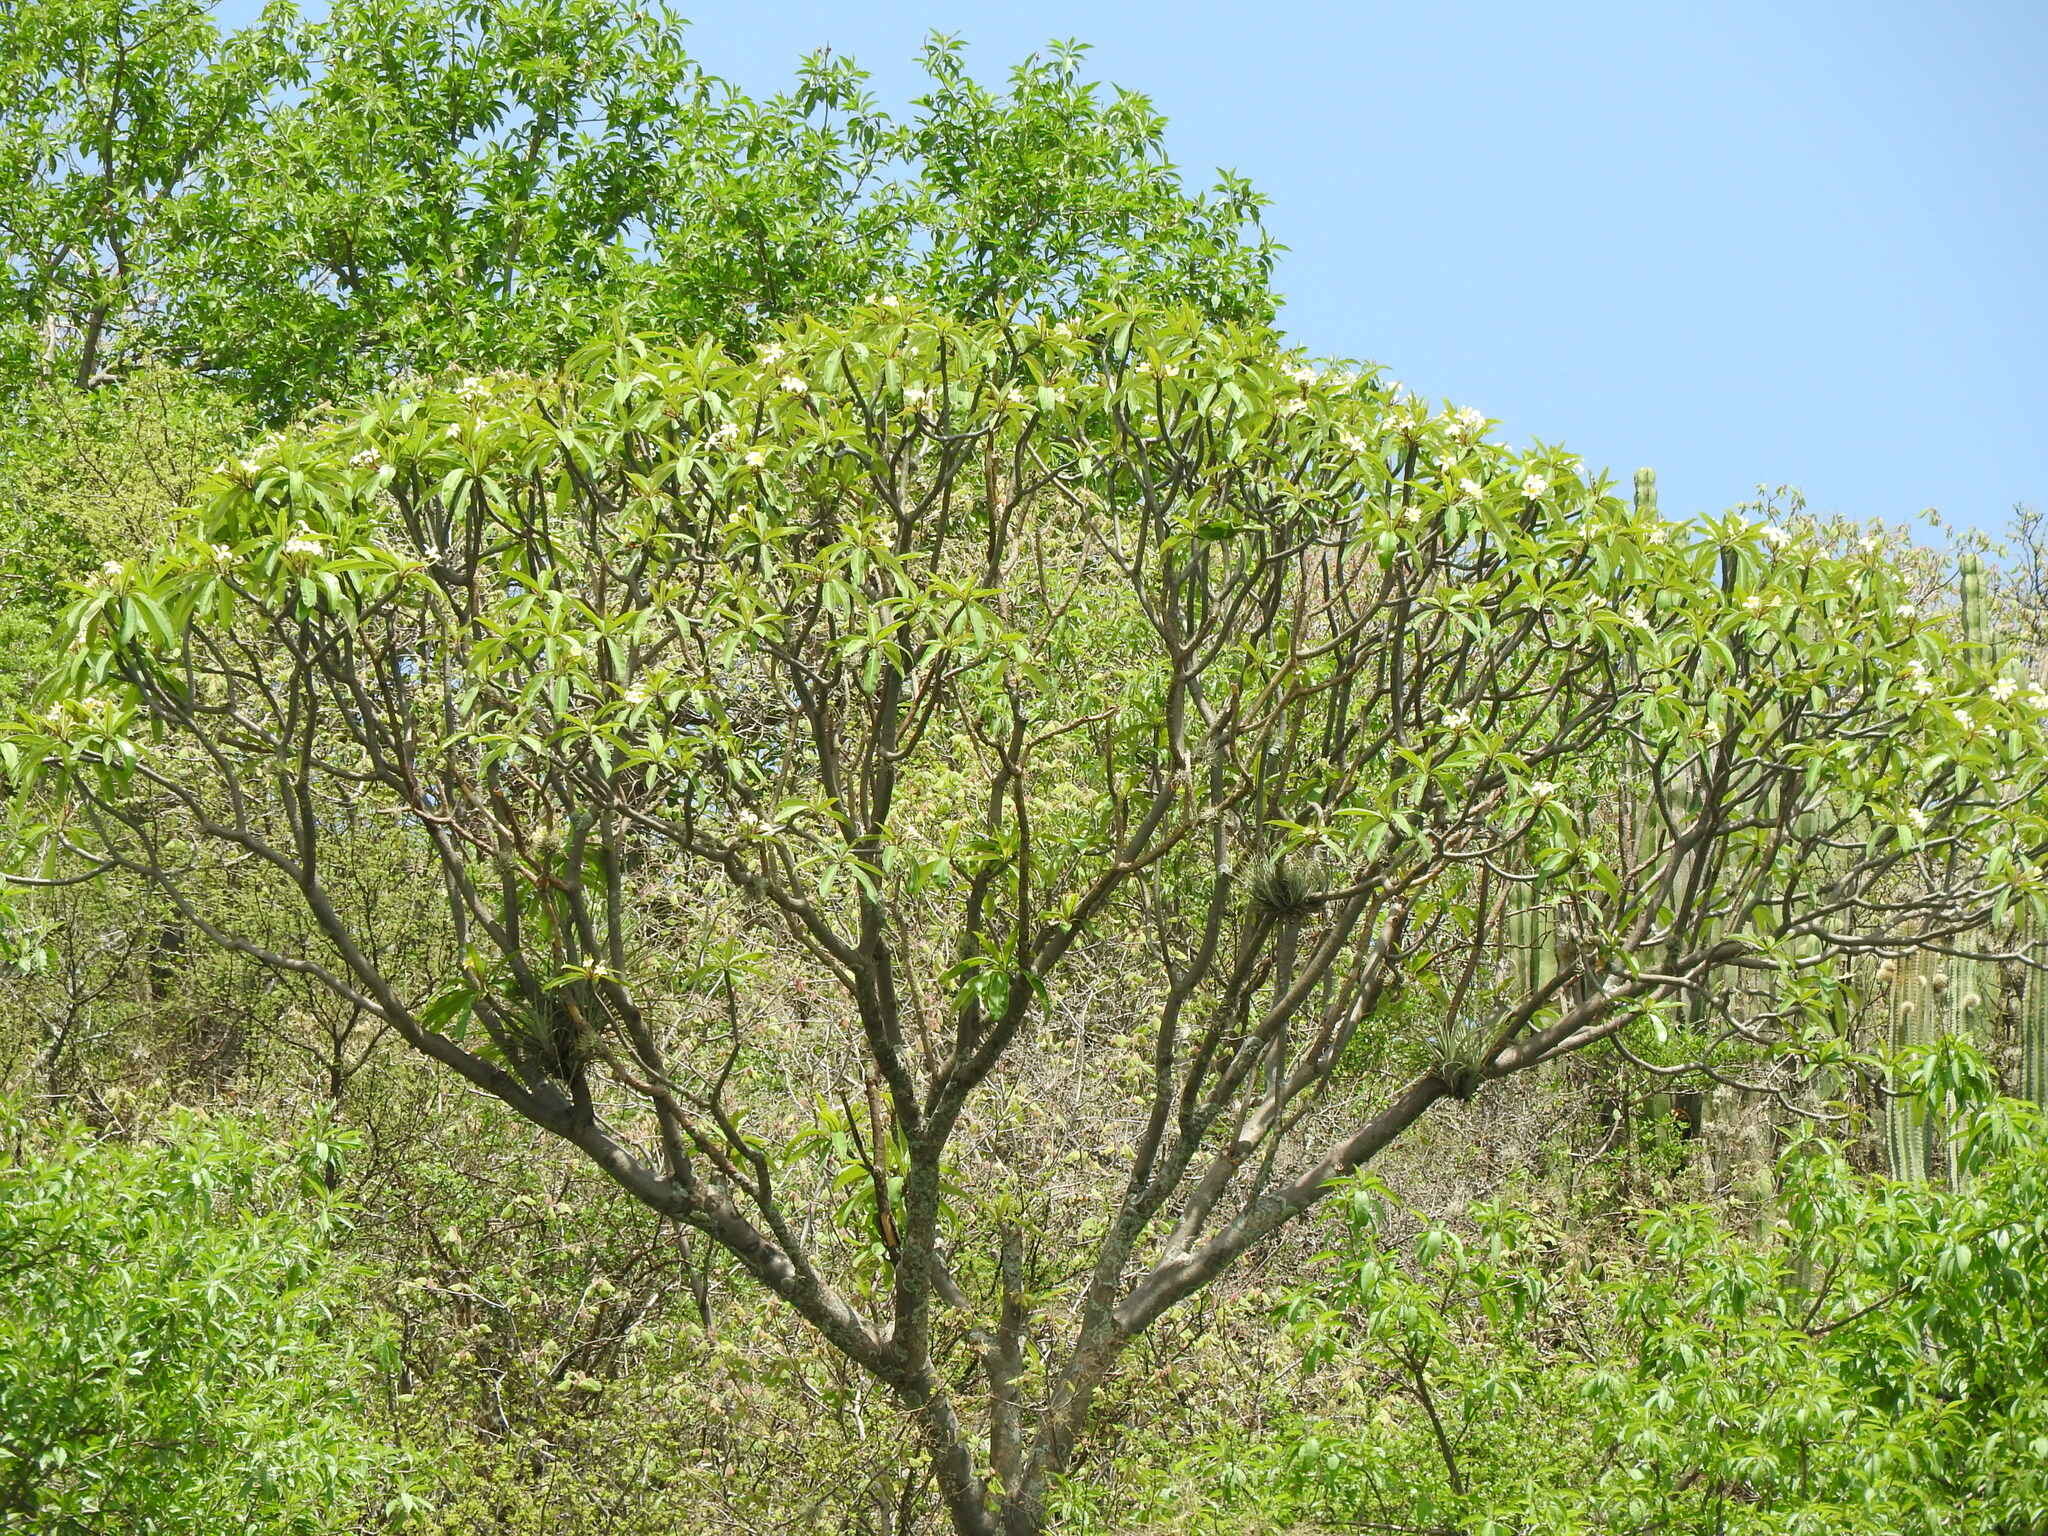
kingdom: Plantae
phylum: Tracheophyta
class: Magnoliopsida
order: Gentianales
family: Apocynaceae
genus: Plumeria
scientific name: Plumeria rubra
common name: Pagoda-tree
